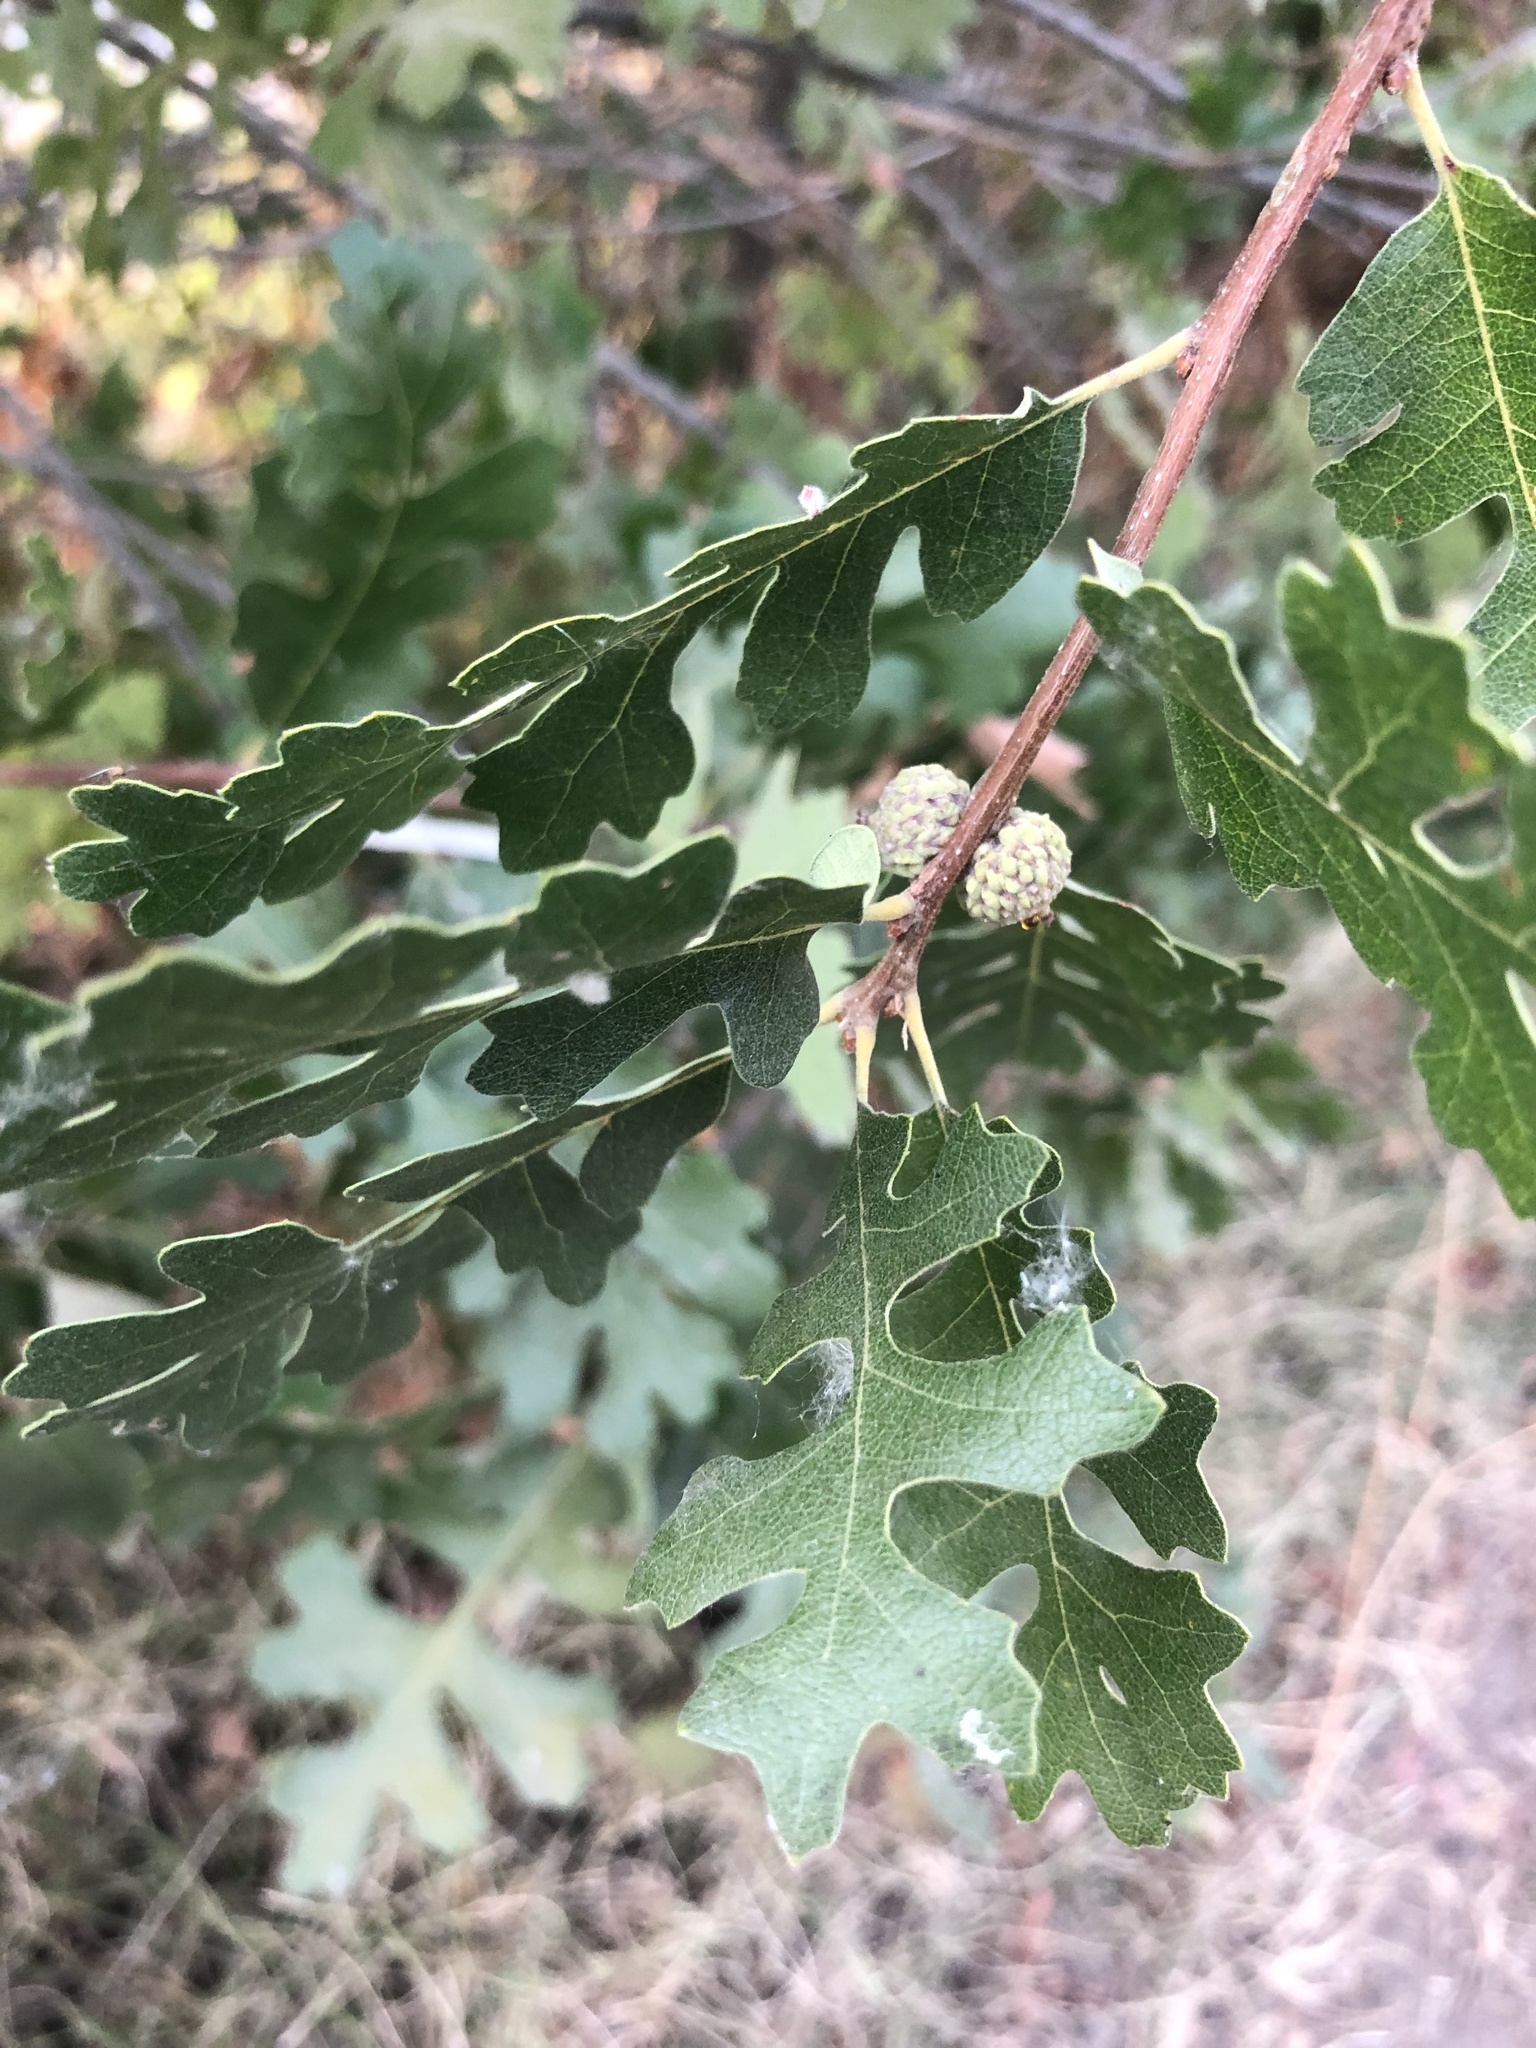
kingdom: Plantae
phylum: Tracheophyta
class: Magnoliopsida
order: Fagales
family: Fagaceae
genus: Quercus
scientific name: Quercus lobata
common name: Valley oak
